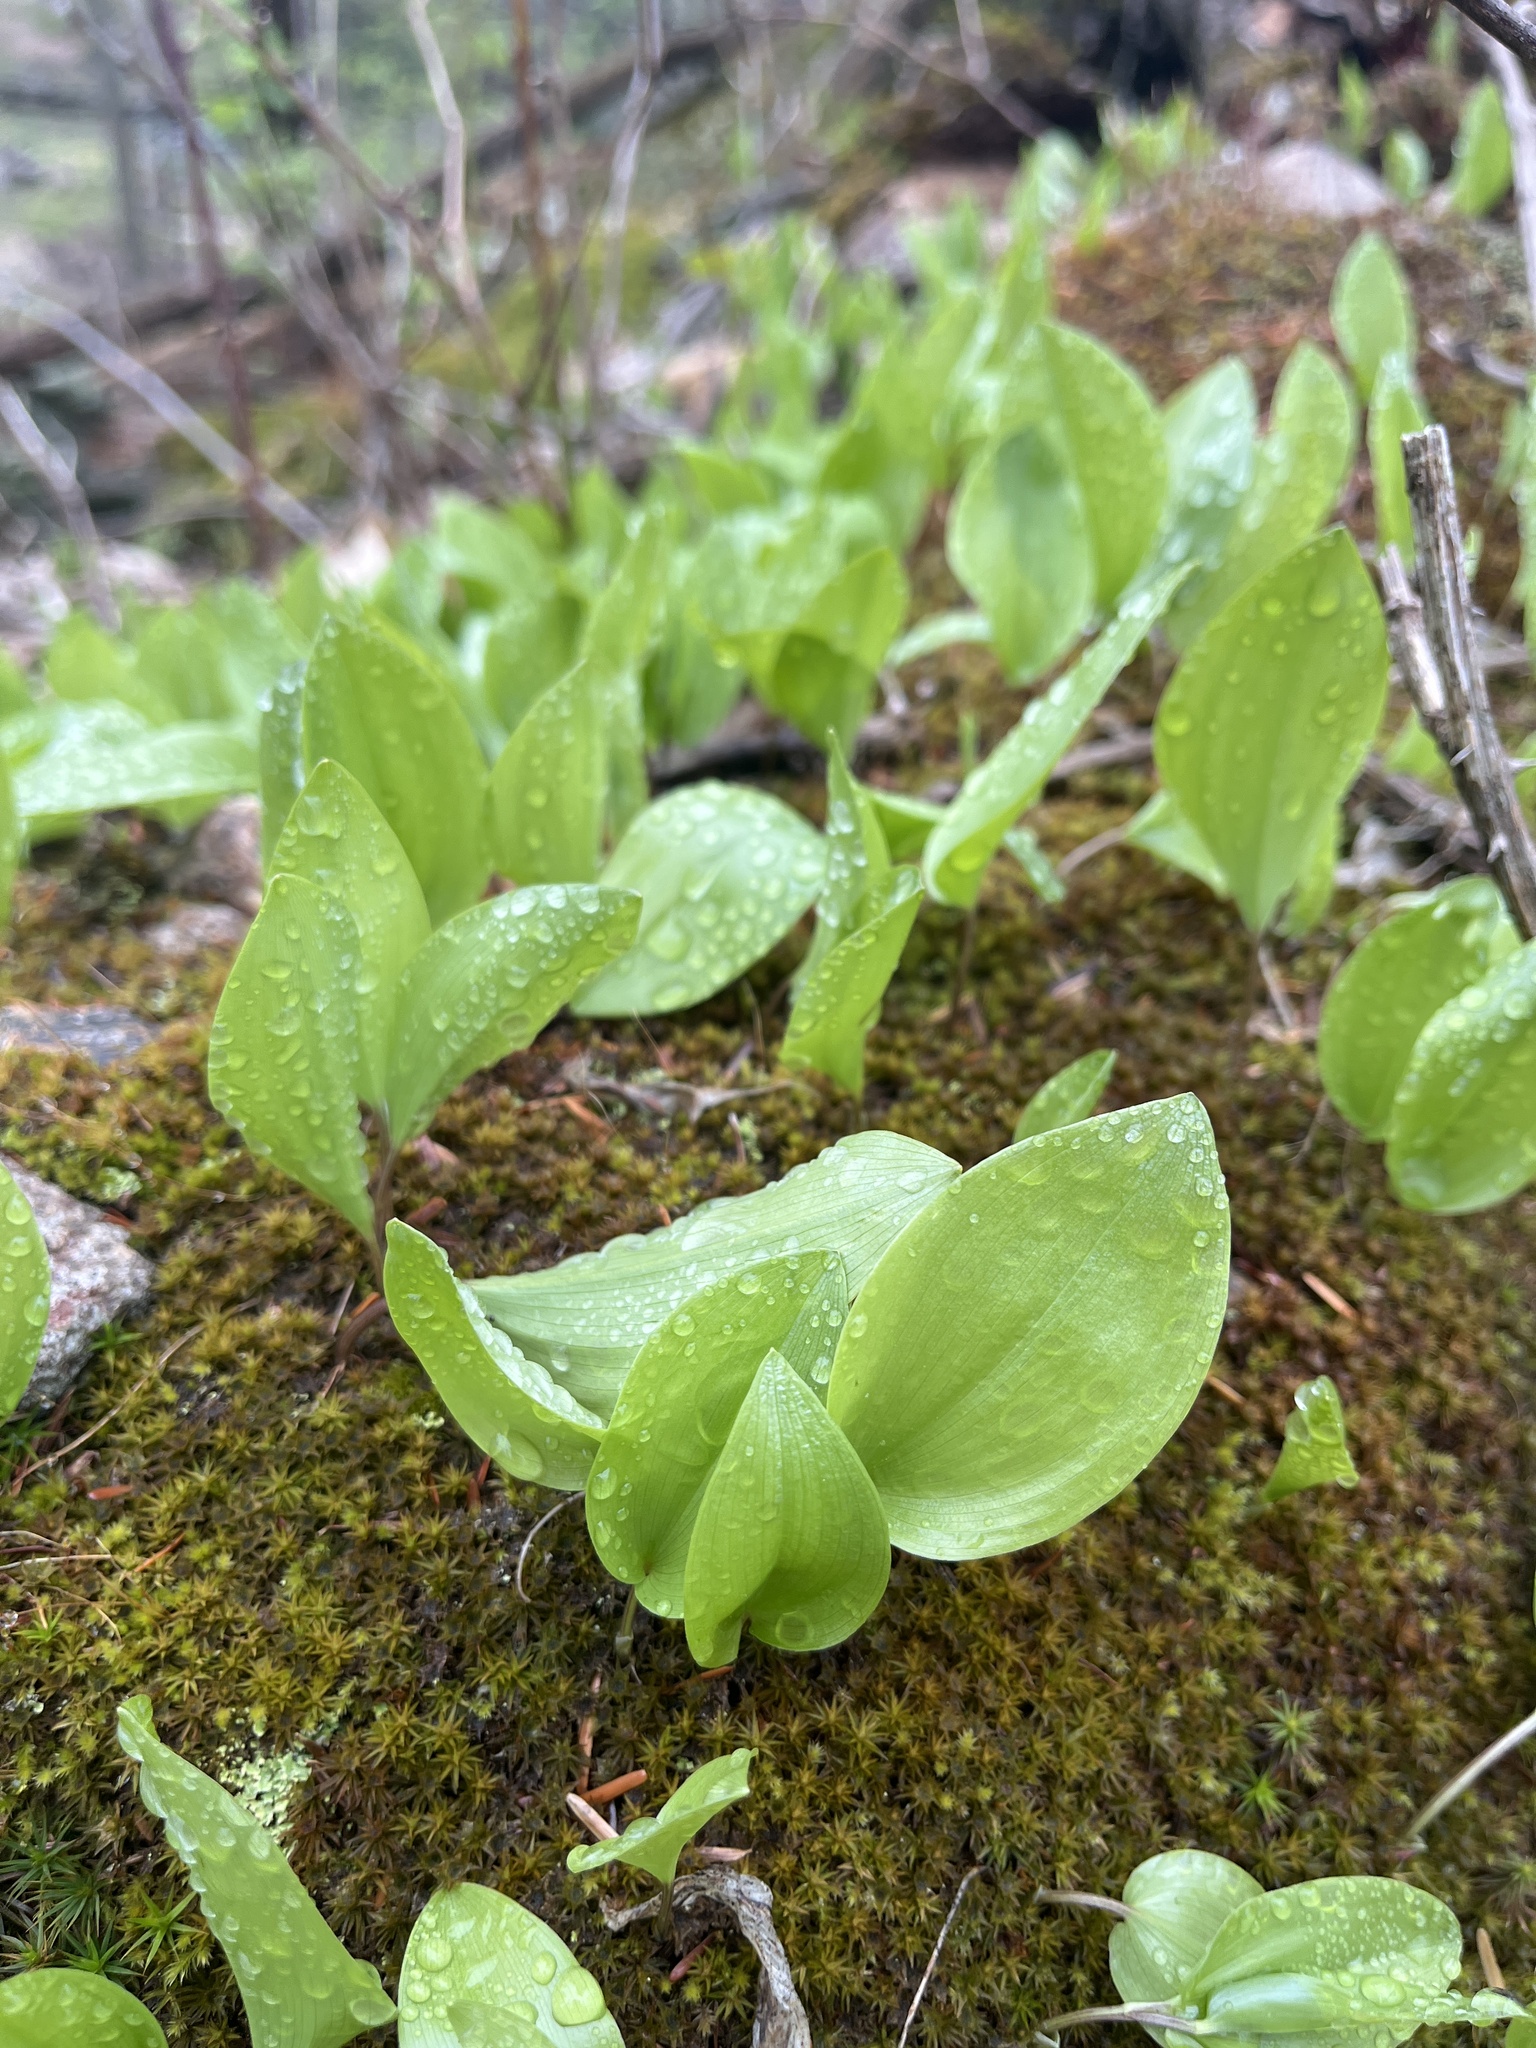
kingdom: Plantae
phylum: Tracheophyta
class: Liliopsida
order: Asparagales
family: Asparagaceae
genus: Maianthemum
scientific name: Maianthemum canadense
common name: False lily-of-the-valley
